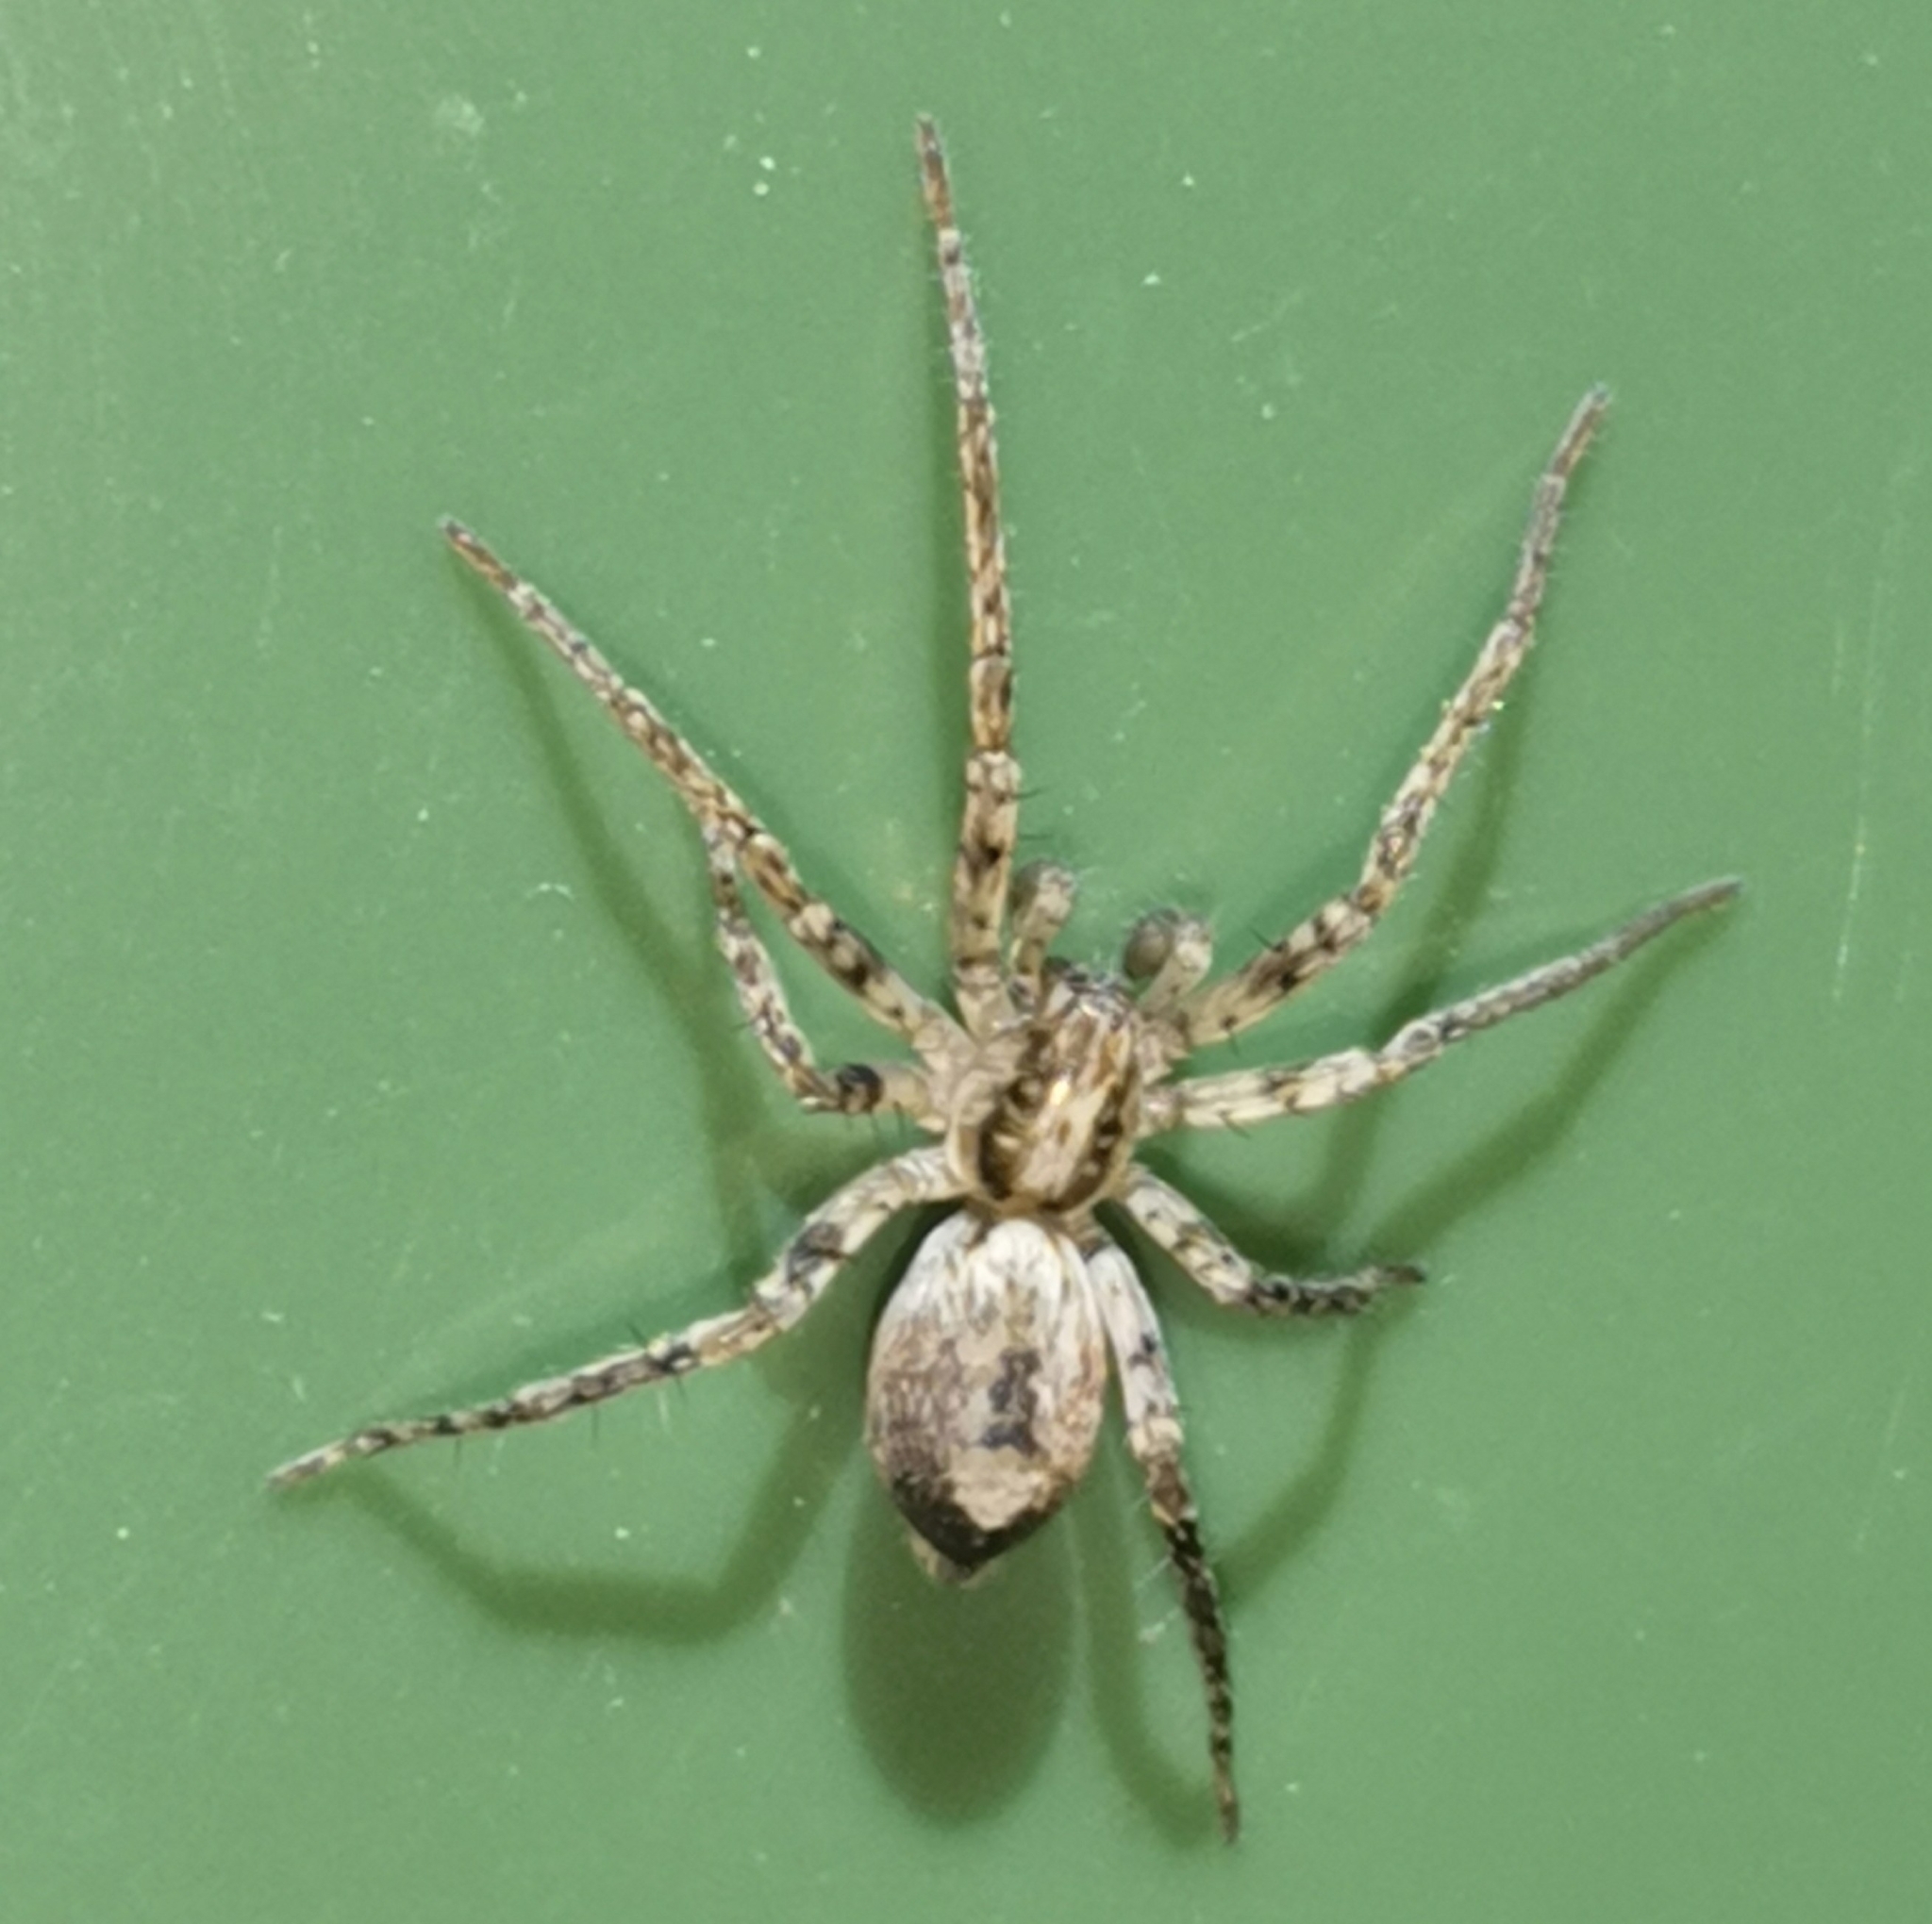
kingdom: Animalia
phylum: Arthropoda
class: Arachnida
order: Araneae
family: Anyphaenidae
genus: Anyphaena
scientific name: Anyphaena accentuata
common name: Buzzing spider
